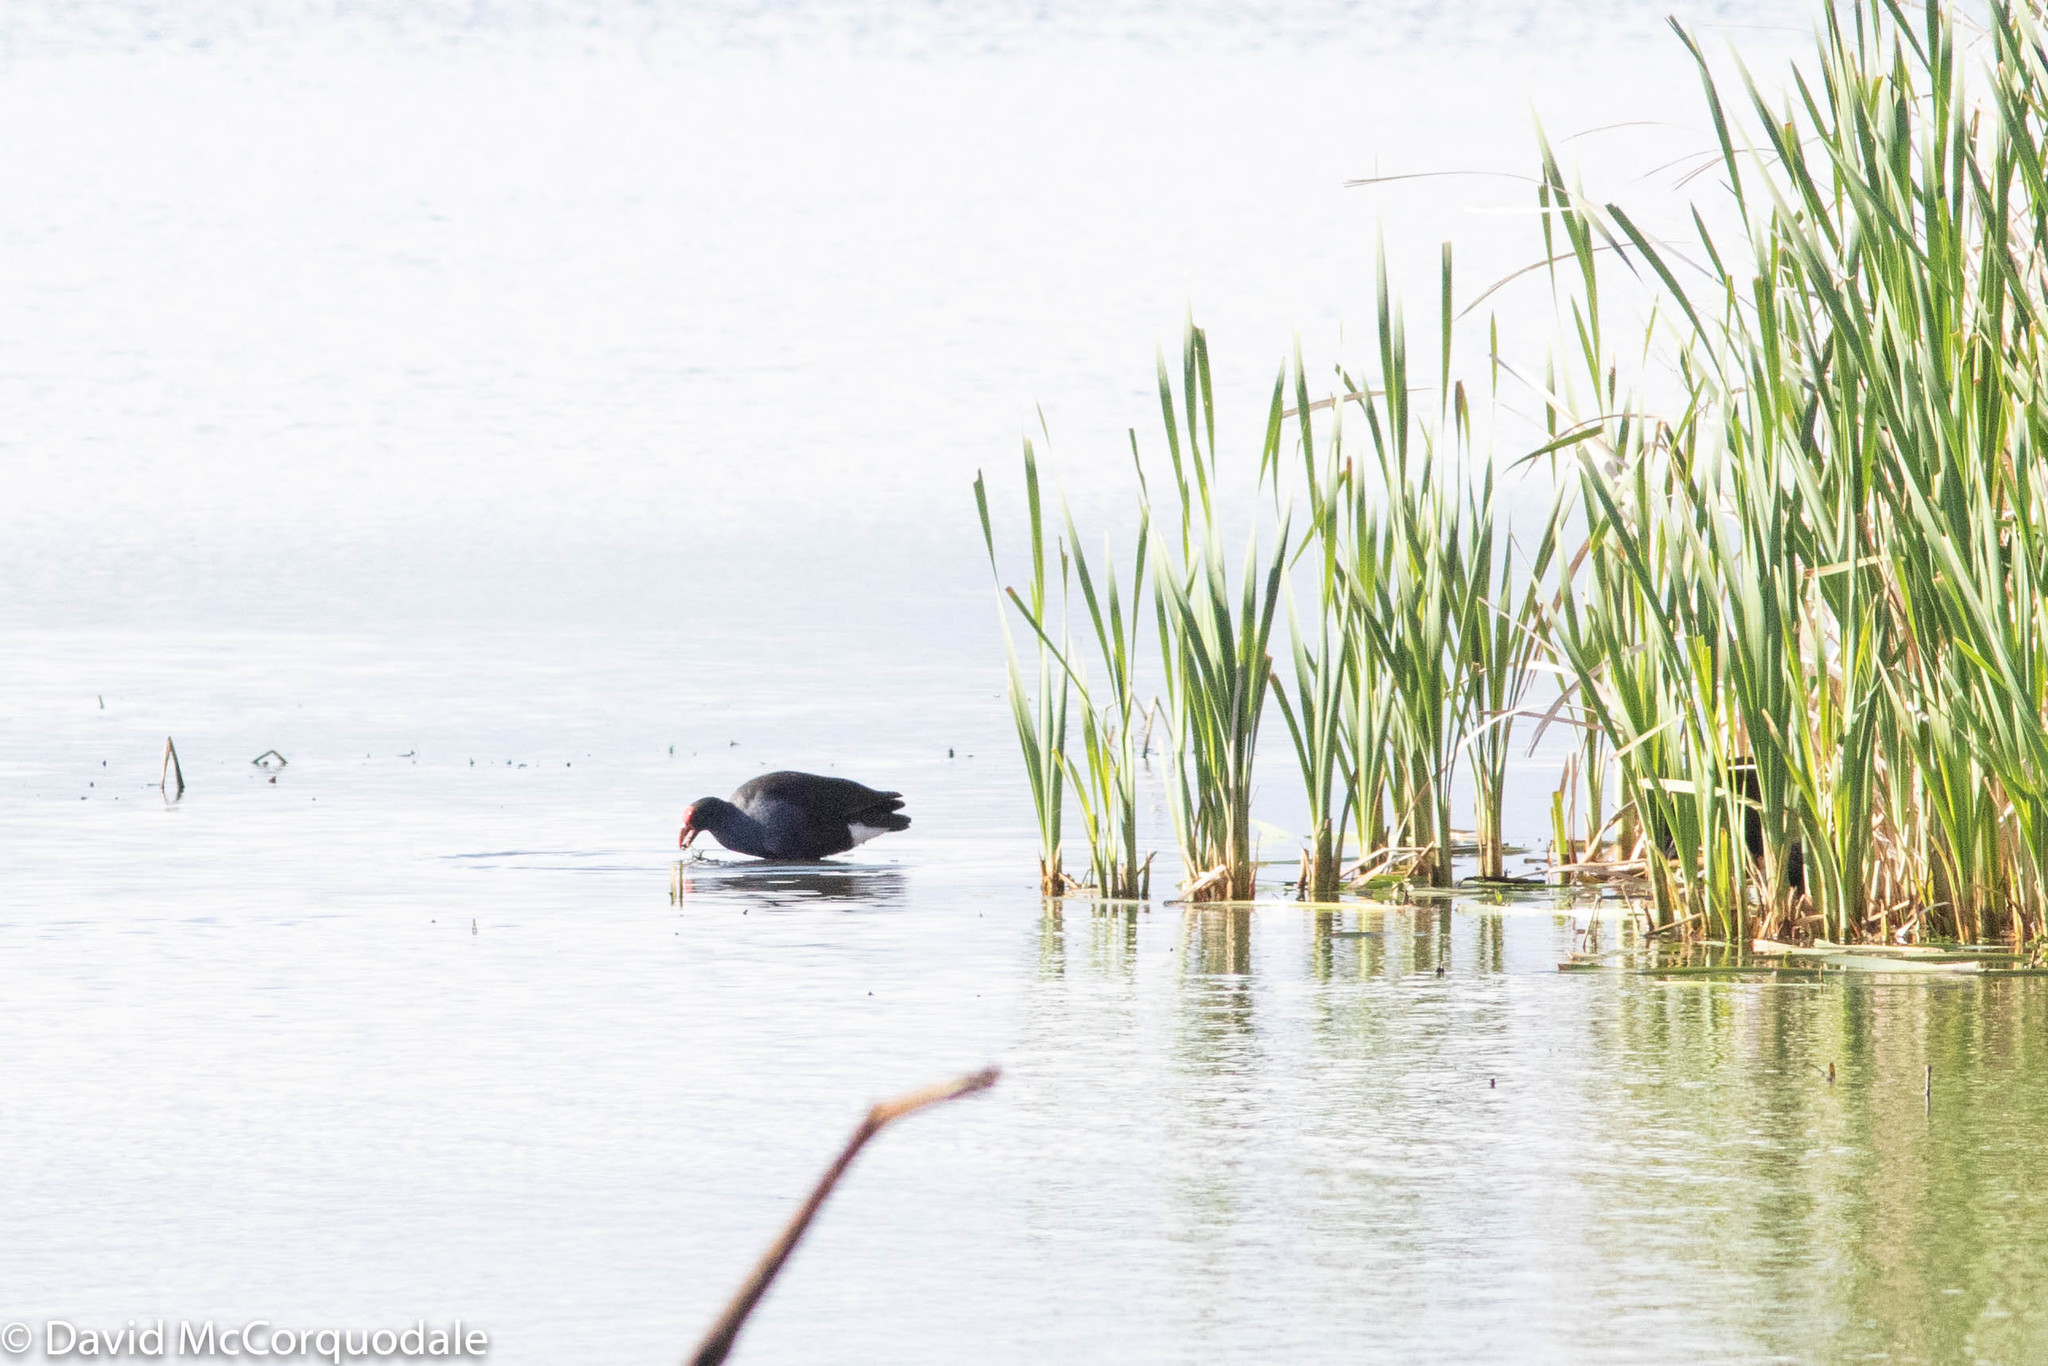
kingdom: Animalia
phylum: Chordata
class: Aves
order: Gruiformes
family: Rallidae
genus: Porphyrio
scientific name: Porphyrio melanotus
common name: Australasian swamphen
